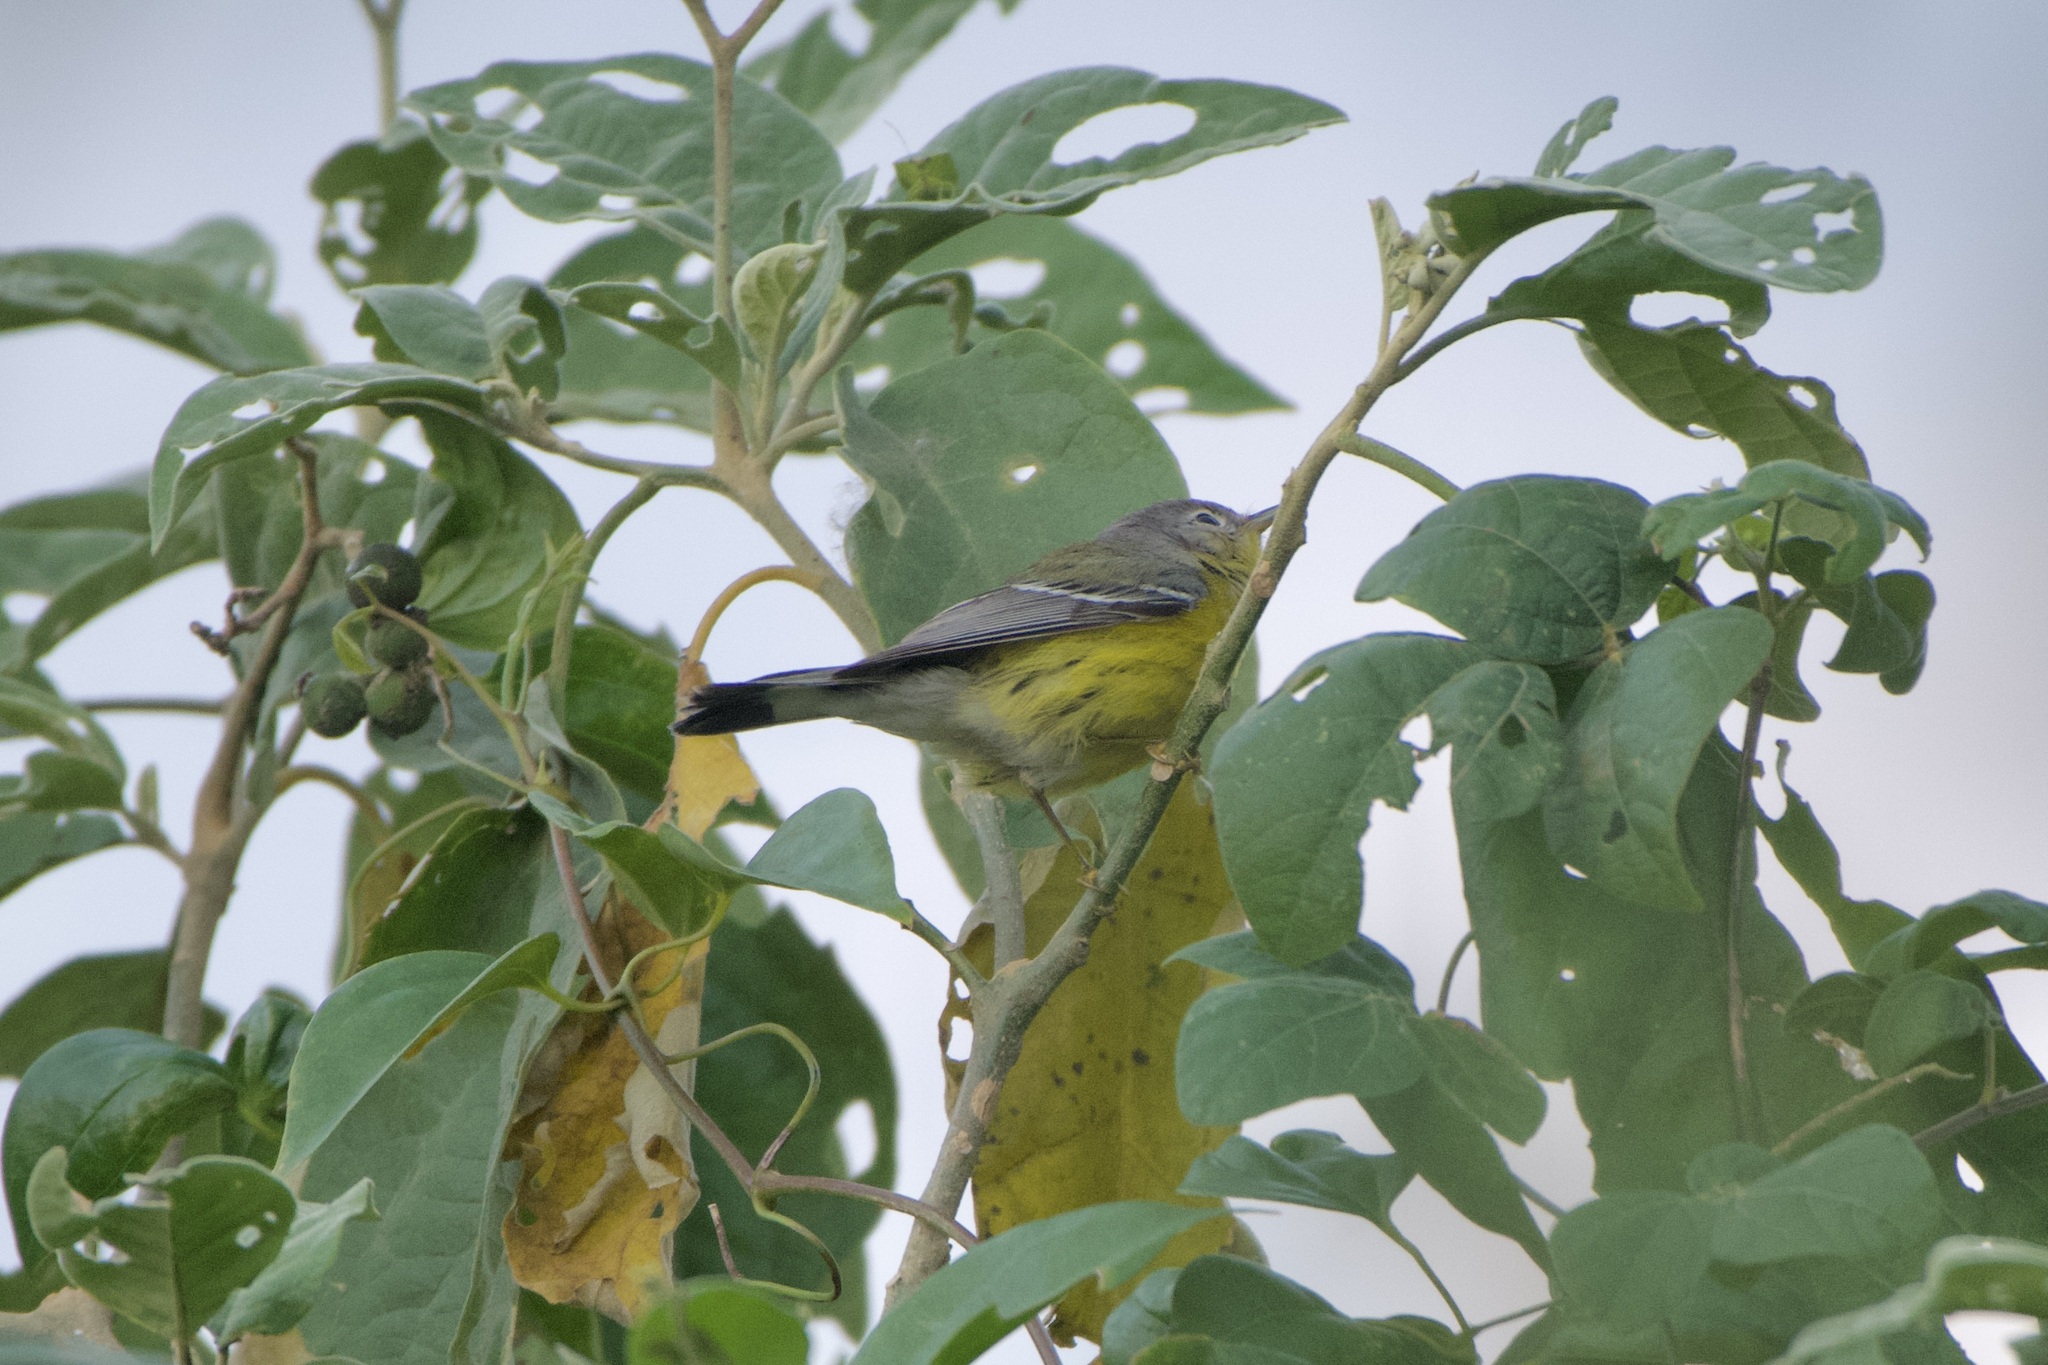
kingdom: Animalia
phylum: Chordata
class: Aves
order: Passeriformes
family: Parulidae
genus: Setophaga
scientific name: Setophaga magnolia
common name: Magnolia warbler
